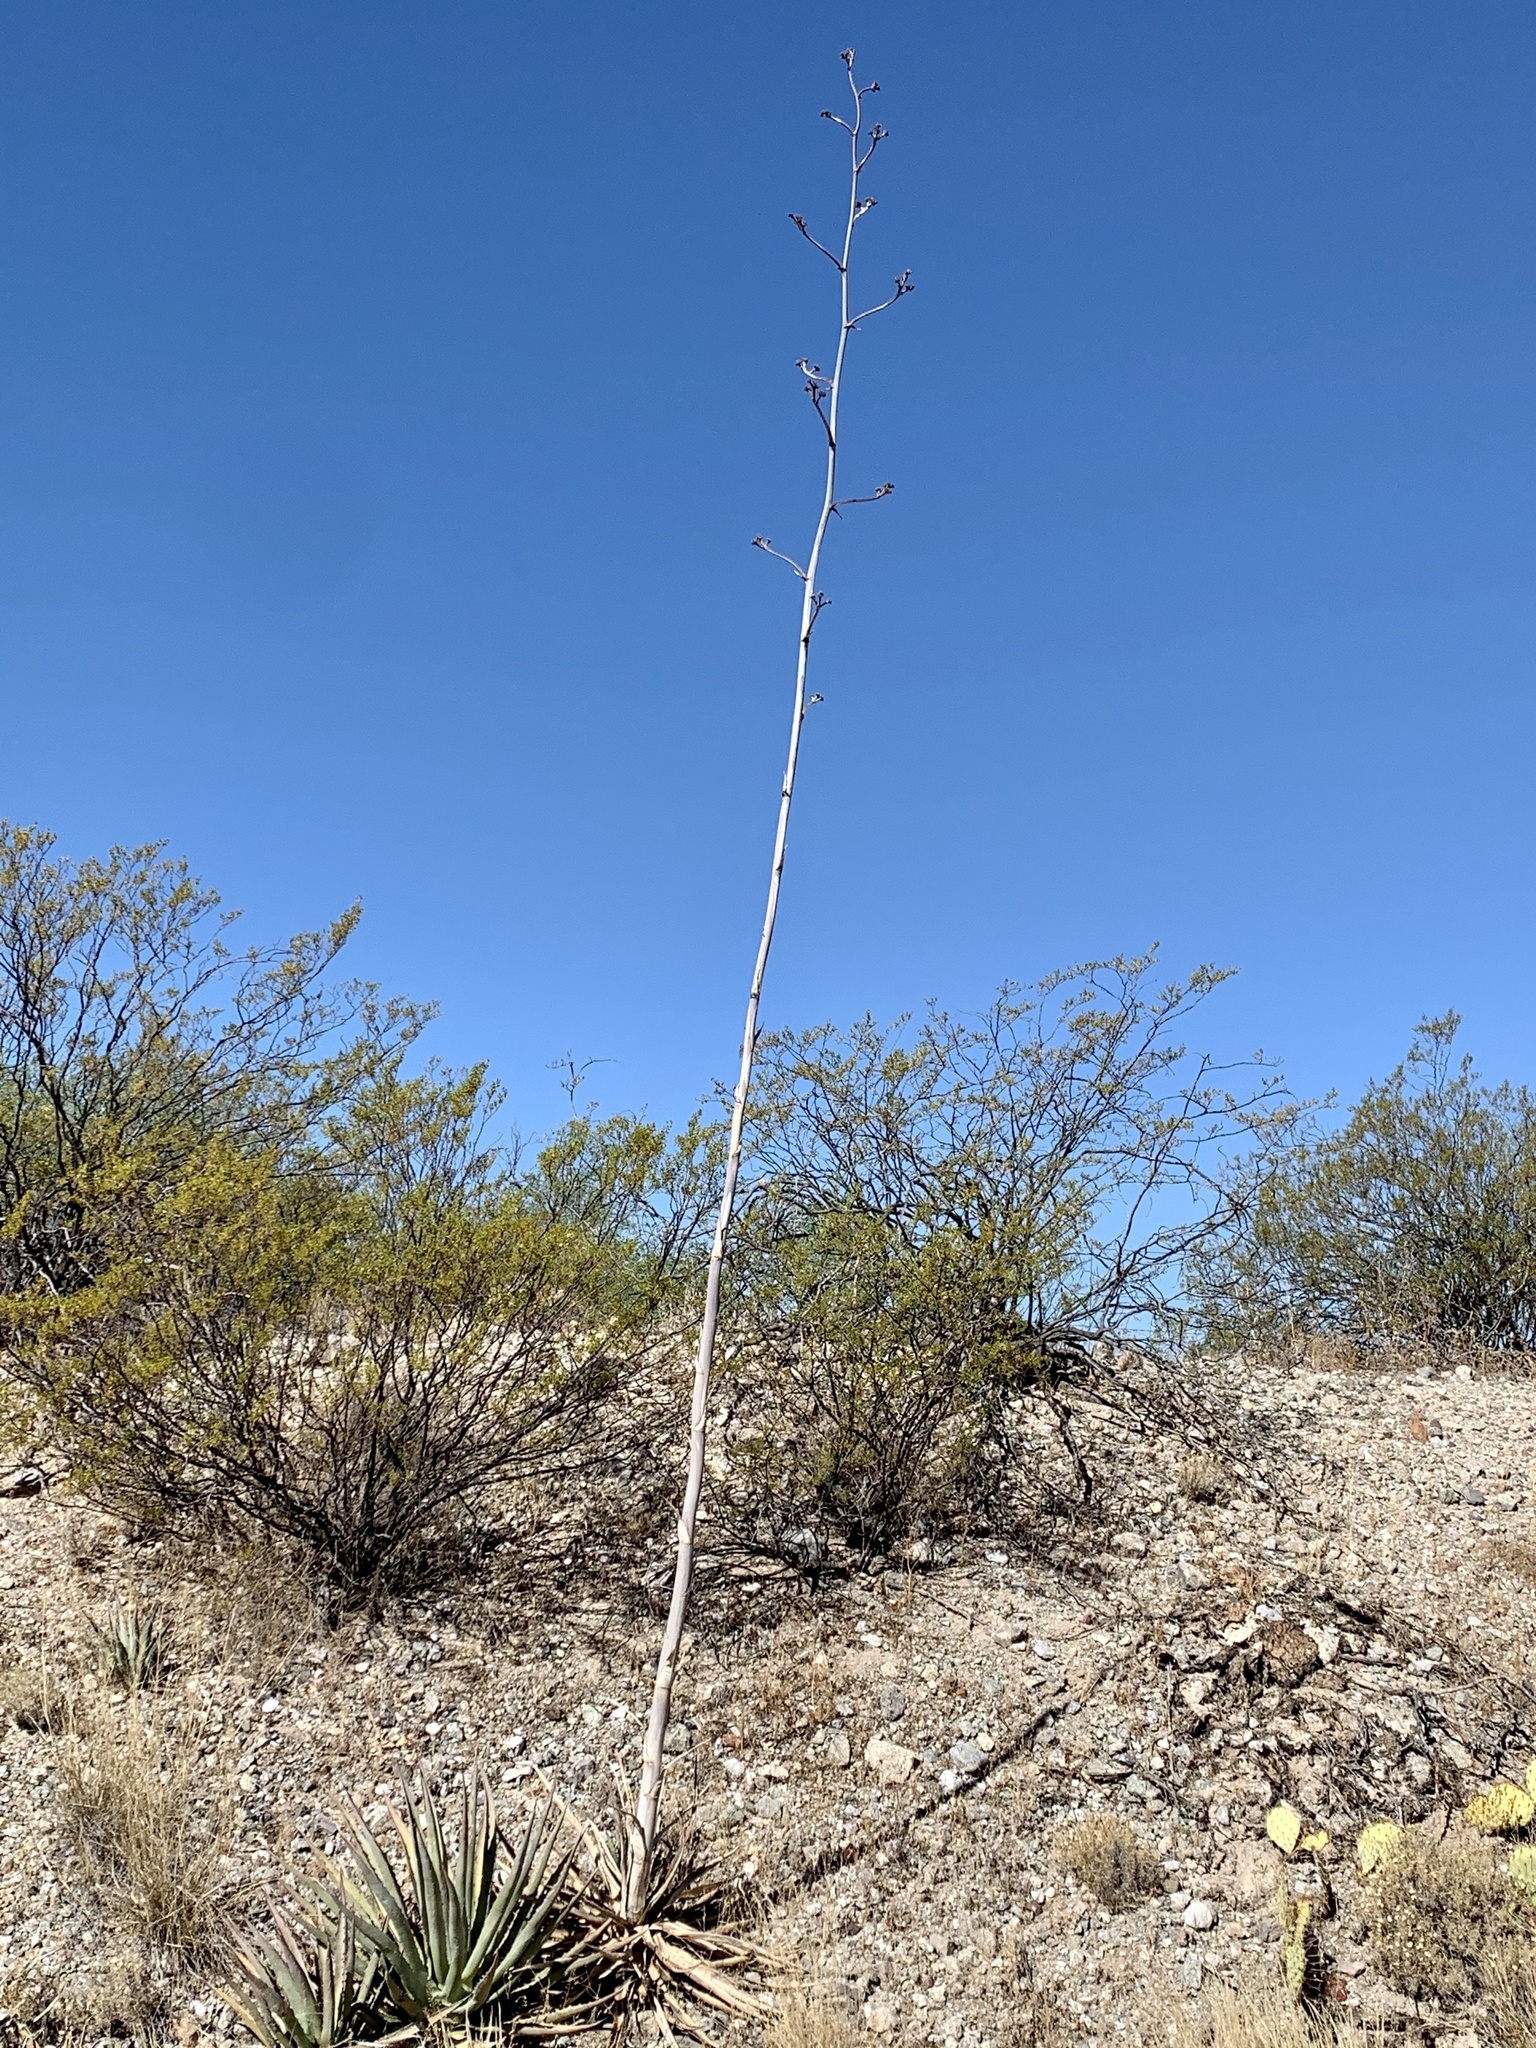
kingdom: Plantae
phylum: Tracheophyta
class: Liliopsida
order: Asparagales
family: Asparagaceae
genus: Agave
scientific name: Agave palmeri
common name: Palmer agave
